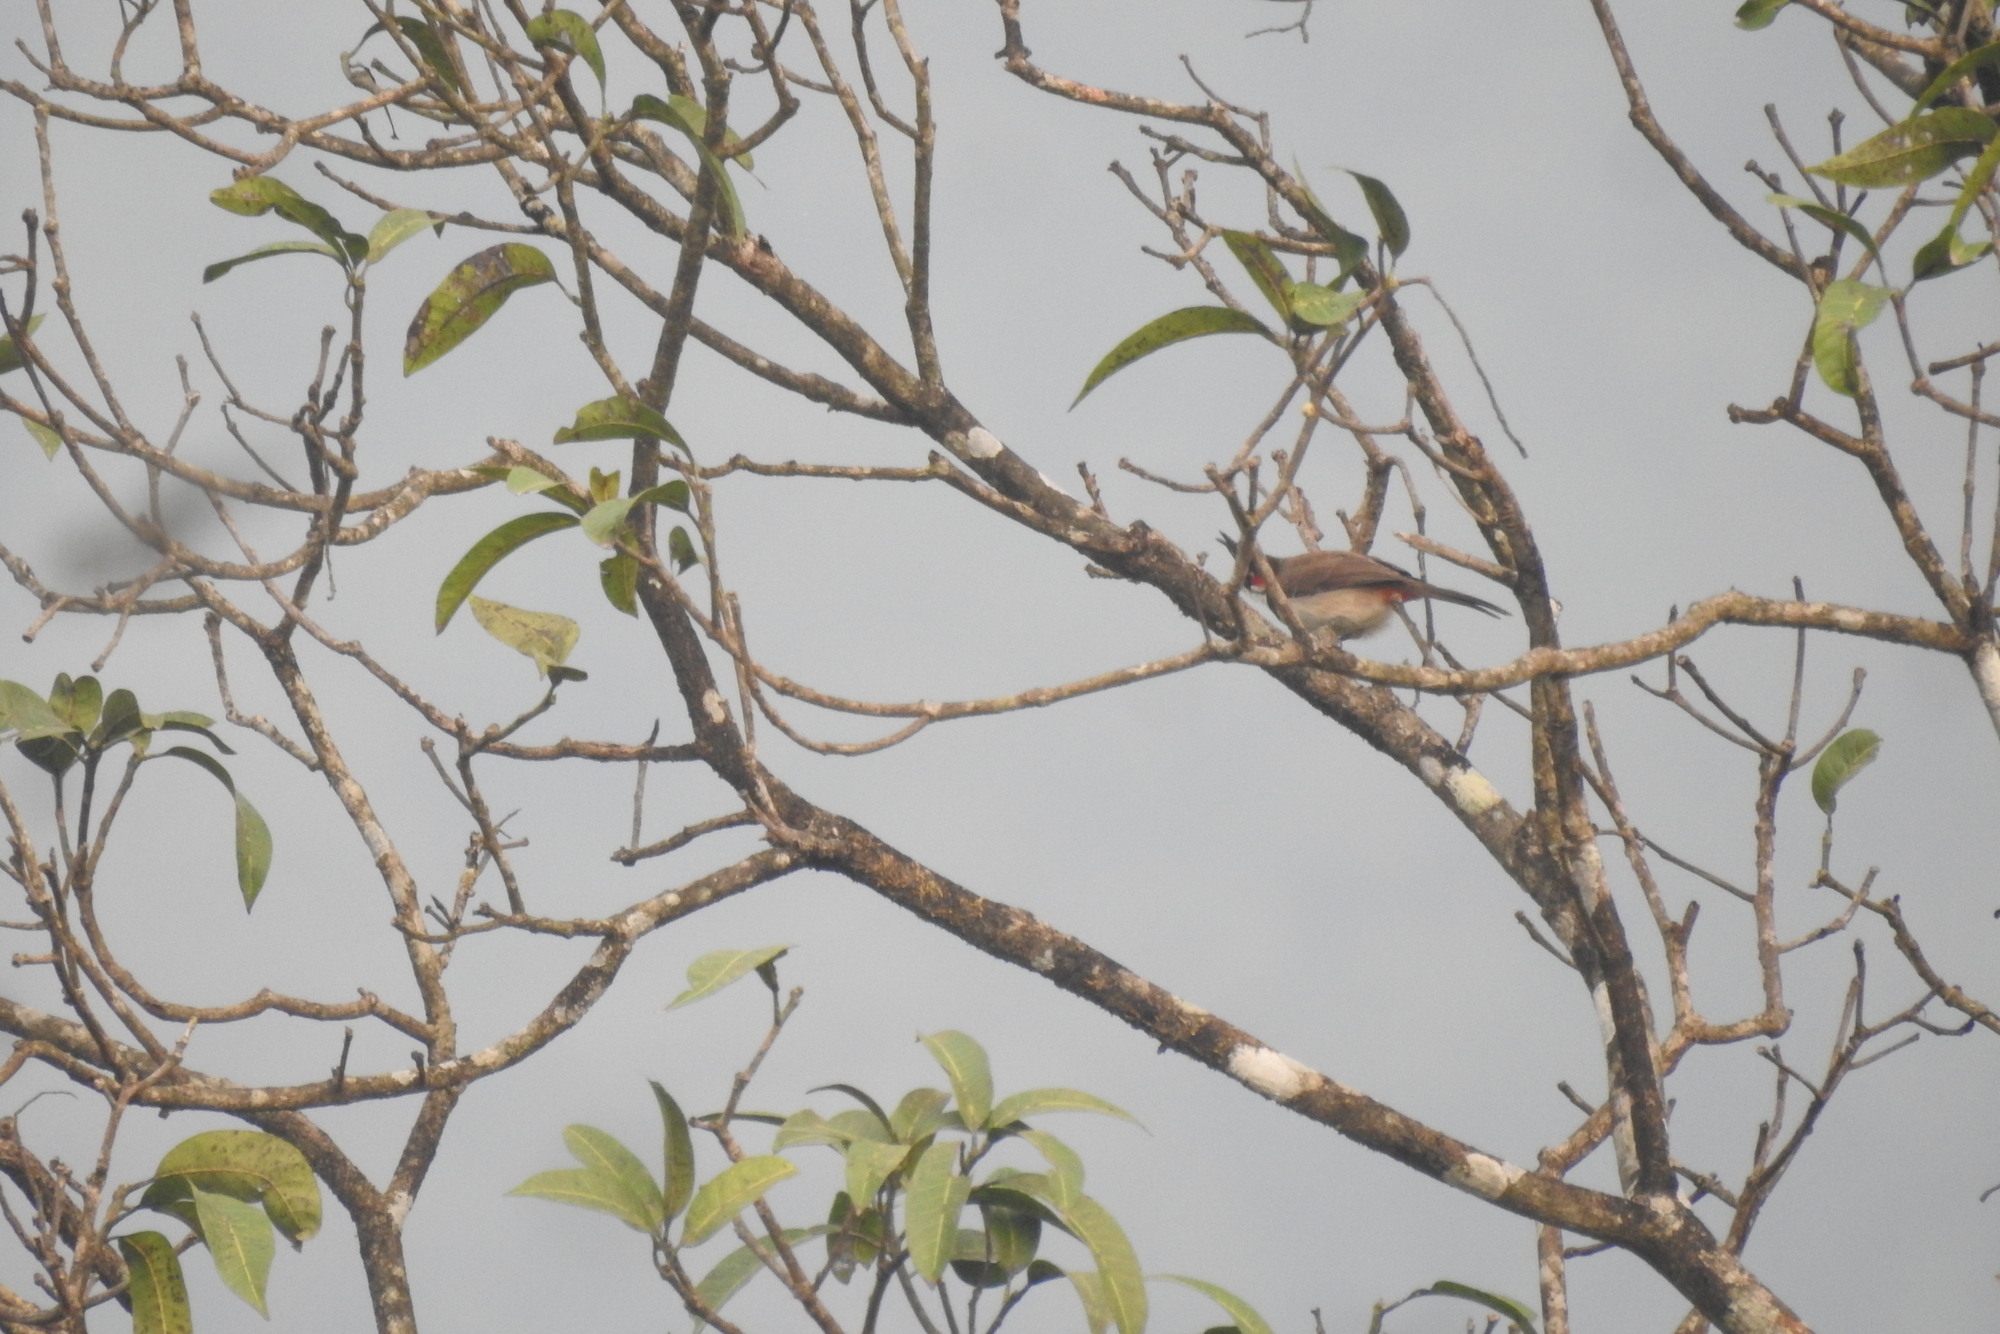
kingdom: Animalia
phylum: Chordata
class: Aves
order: Passeriformes
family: Pycnonotidae
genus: Pycnonotus
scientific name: Pycnonotus jocosus
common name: Red-whiskered bulbul
